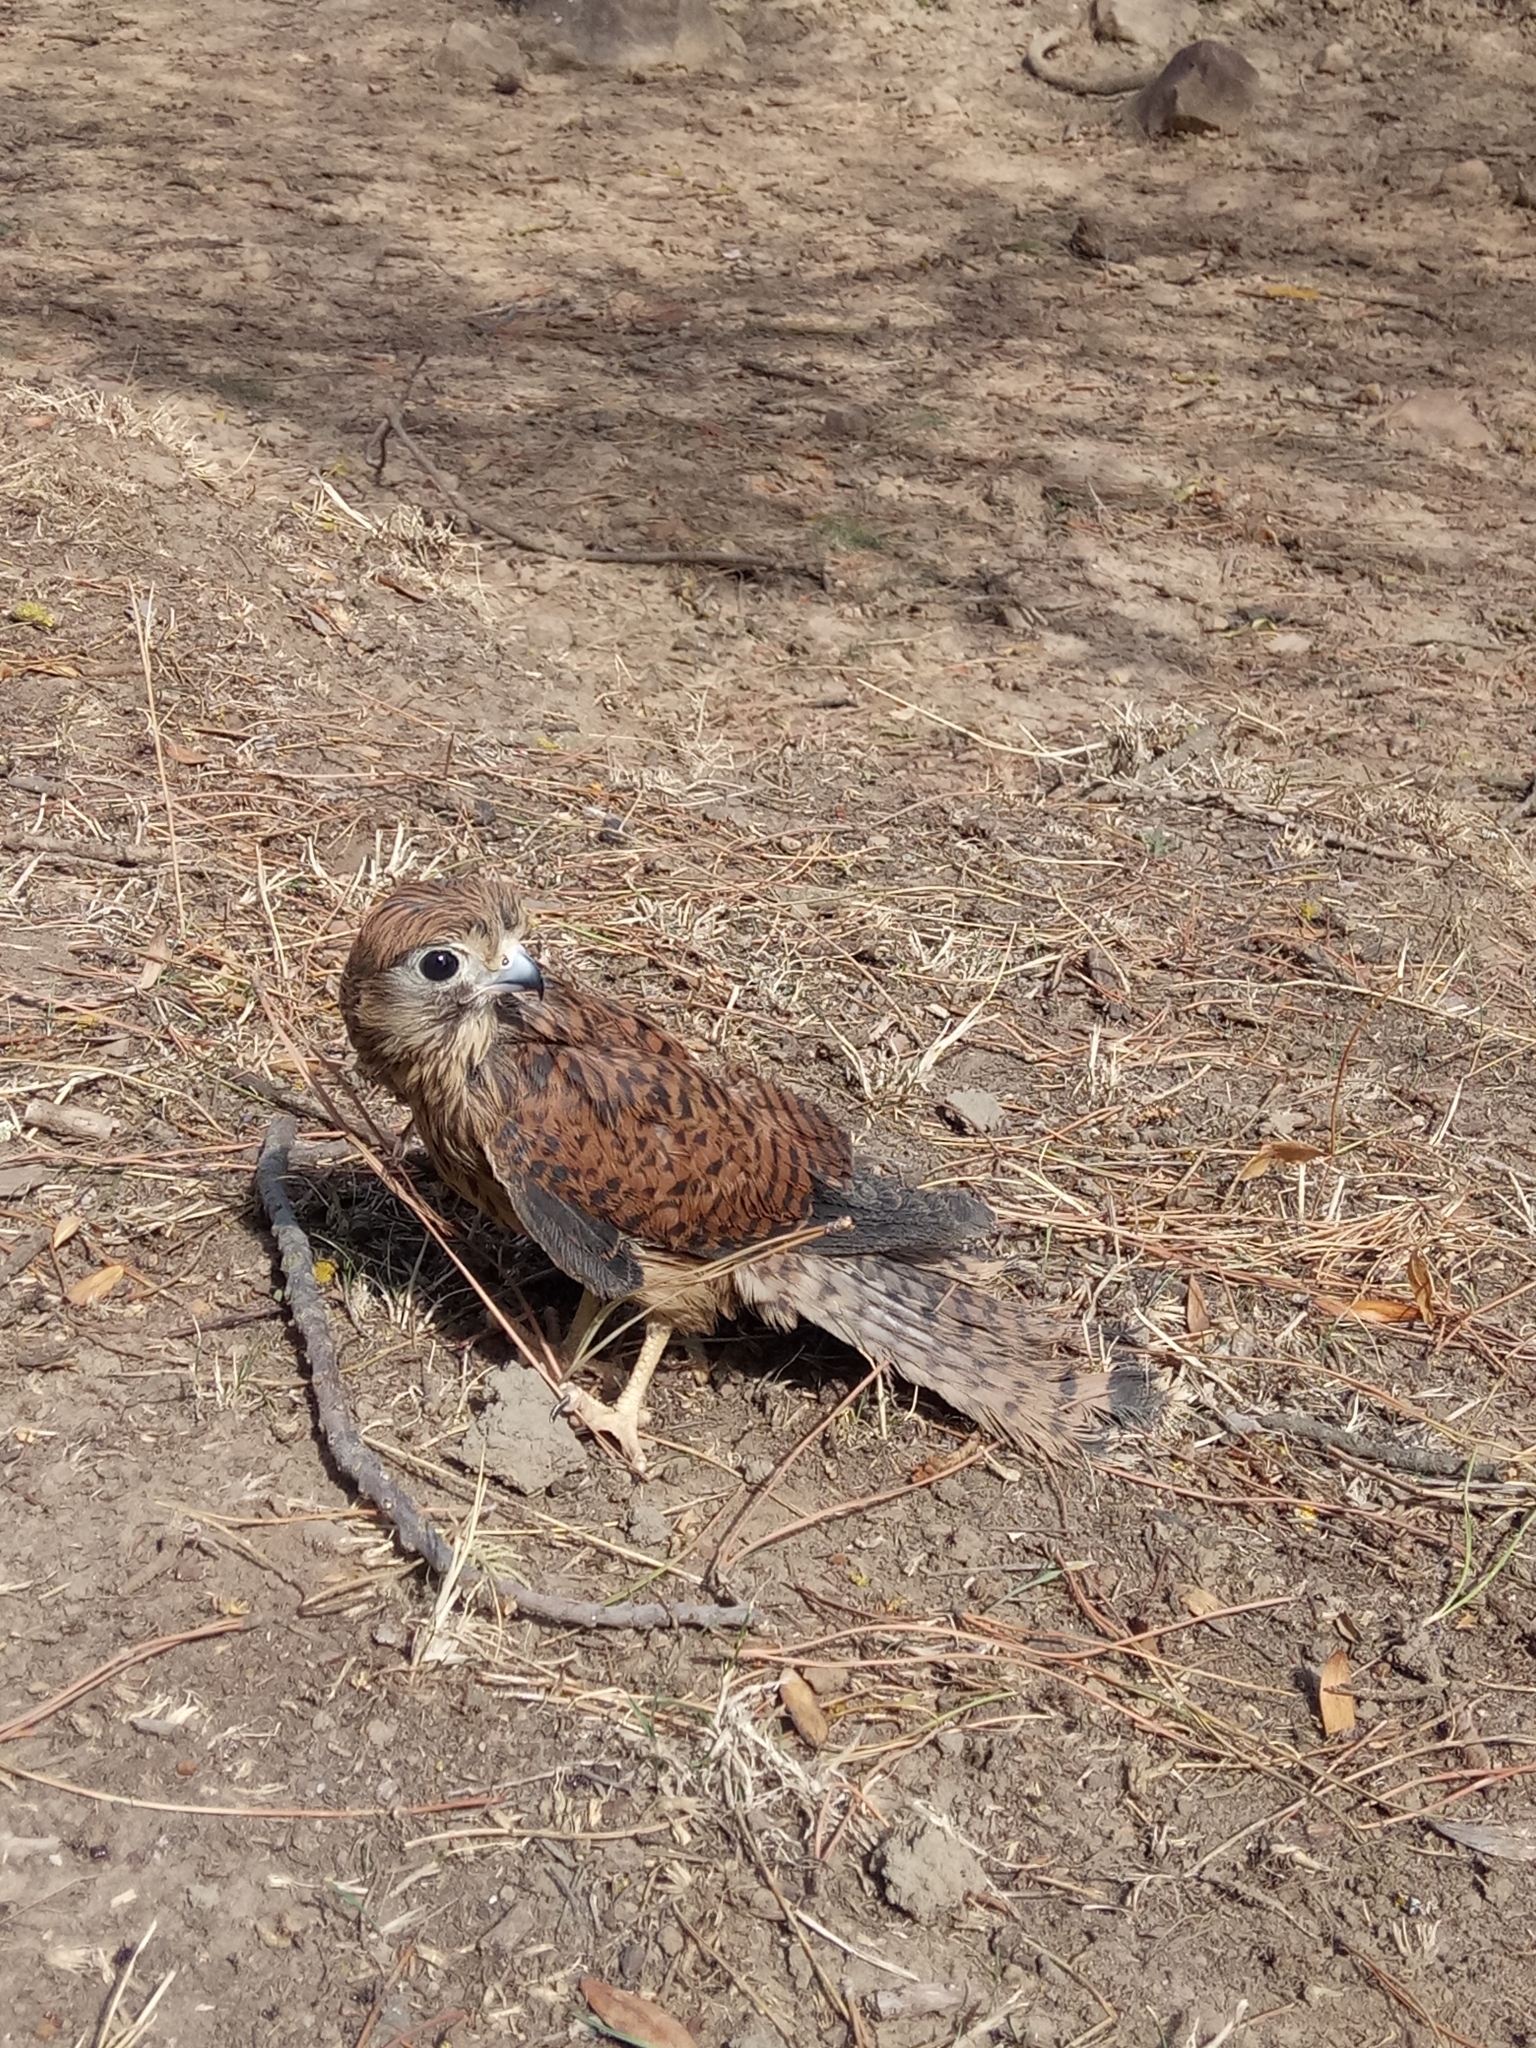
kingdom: Animalia
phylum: Chordata
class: Aves
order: Falconiformes
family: Falconidae
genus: Falco
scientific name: Falco tinnunculus
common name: Common kestrel
